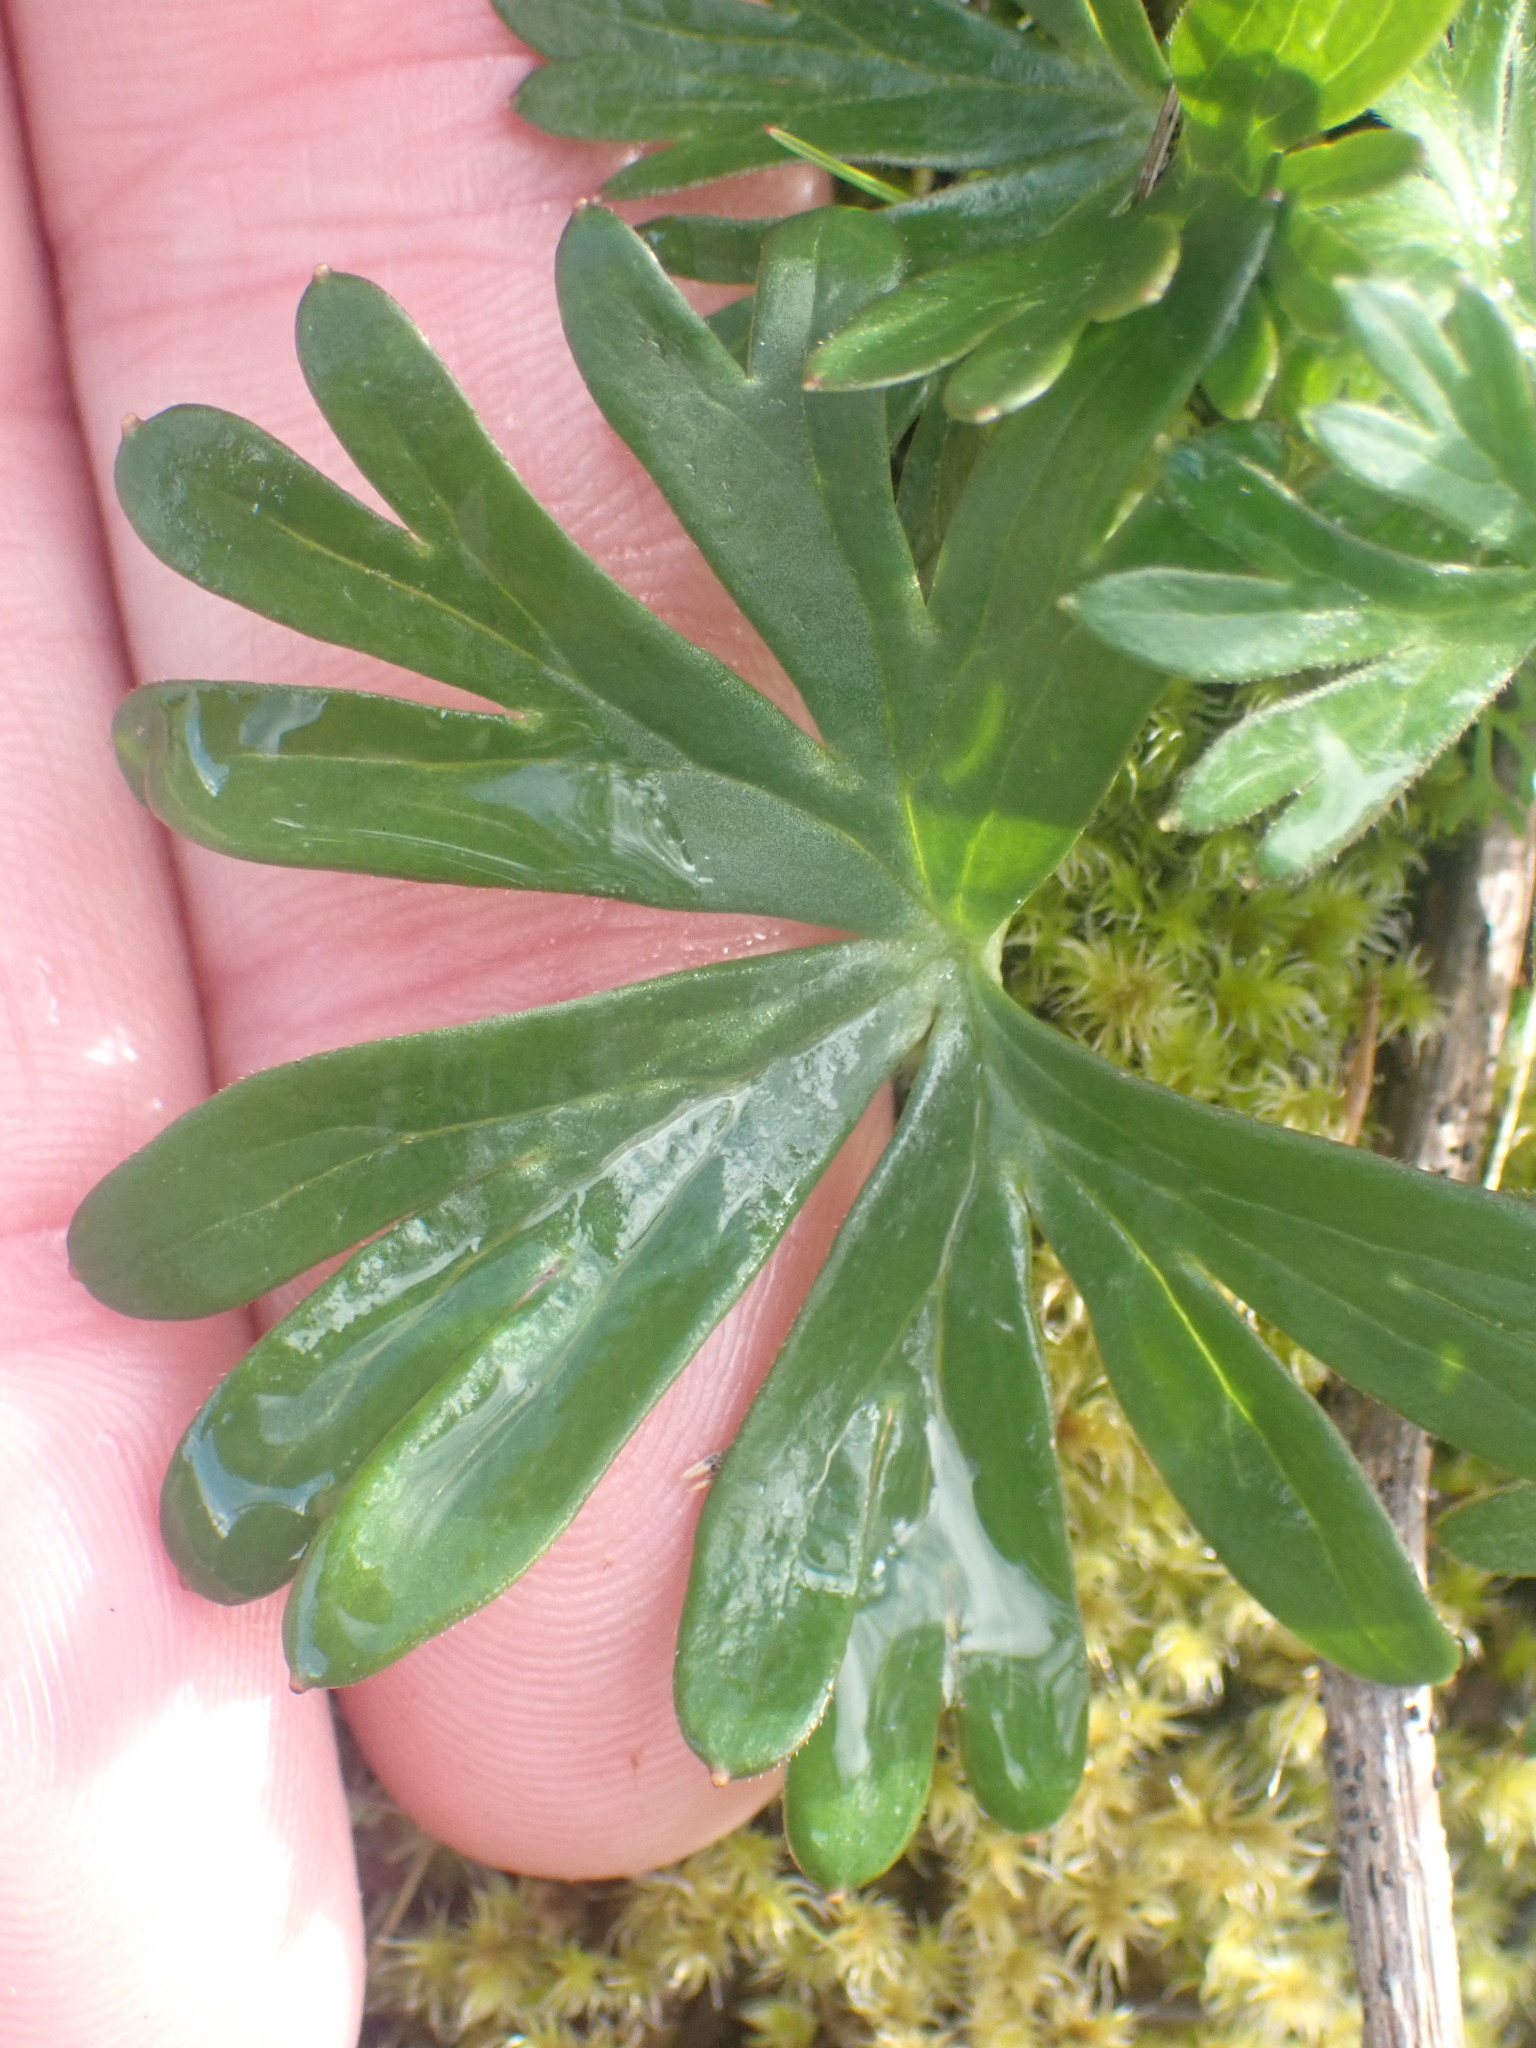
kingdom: Plantae
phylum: Tracheophyta
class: Magnoliopsida
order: Ranunculales
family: Ranunculaceae
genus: Delphinium
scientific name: Delphinium menziesii
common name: Menzies's larkspur
